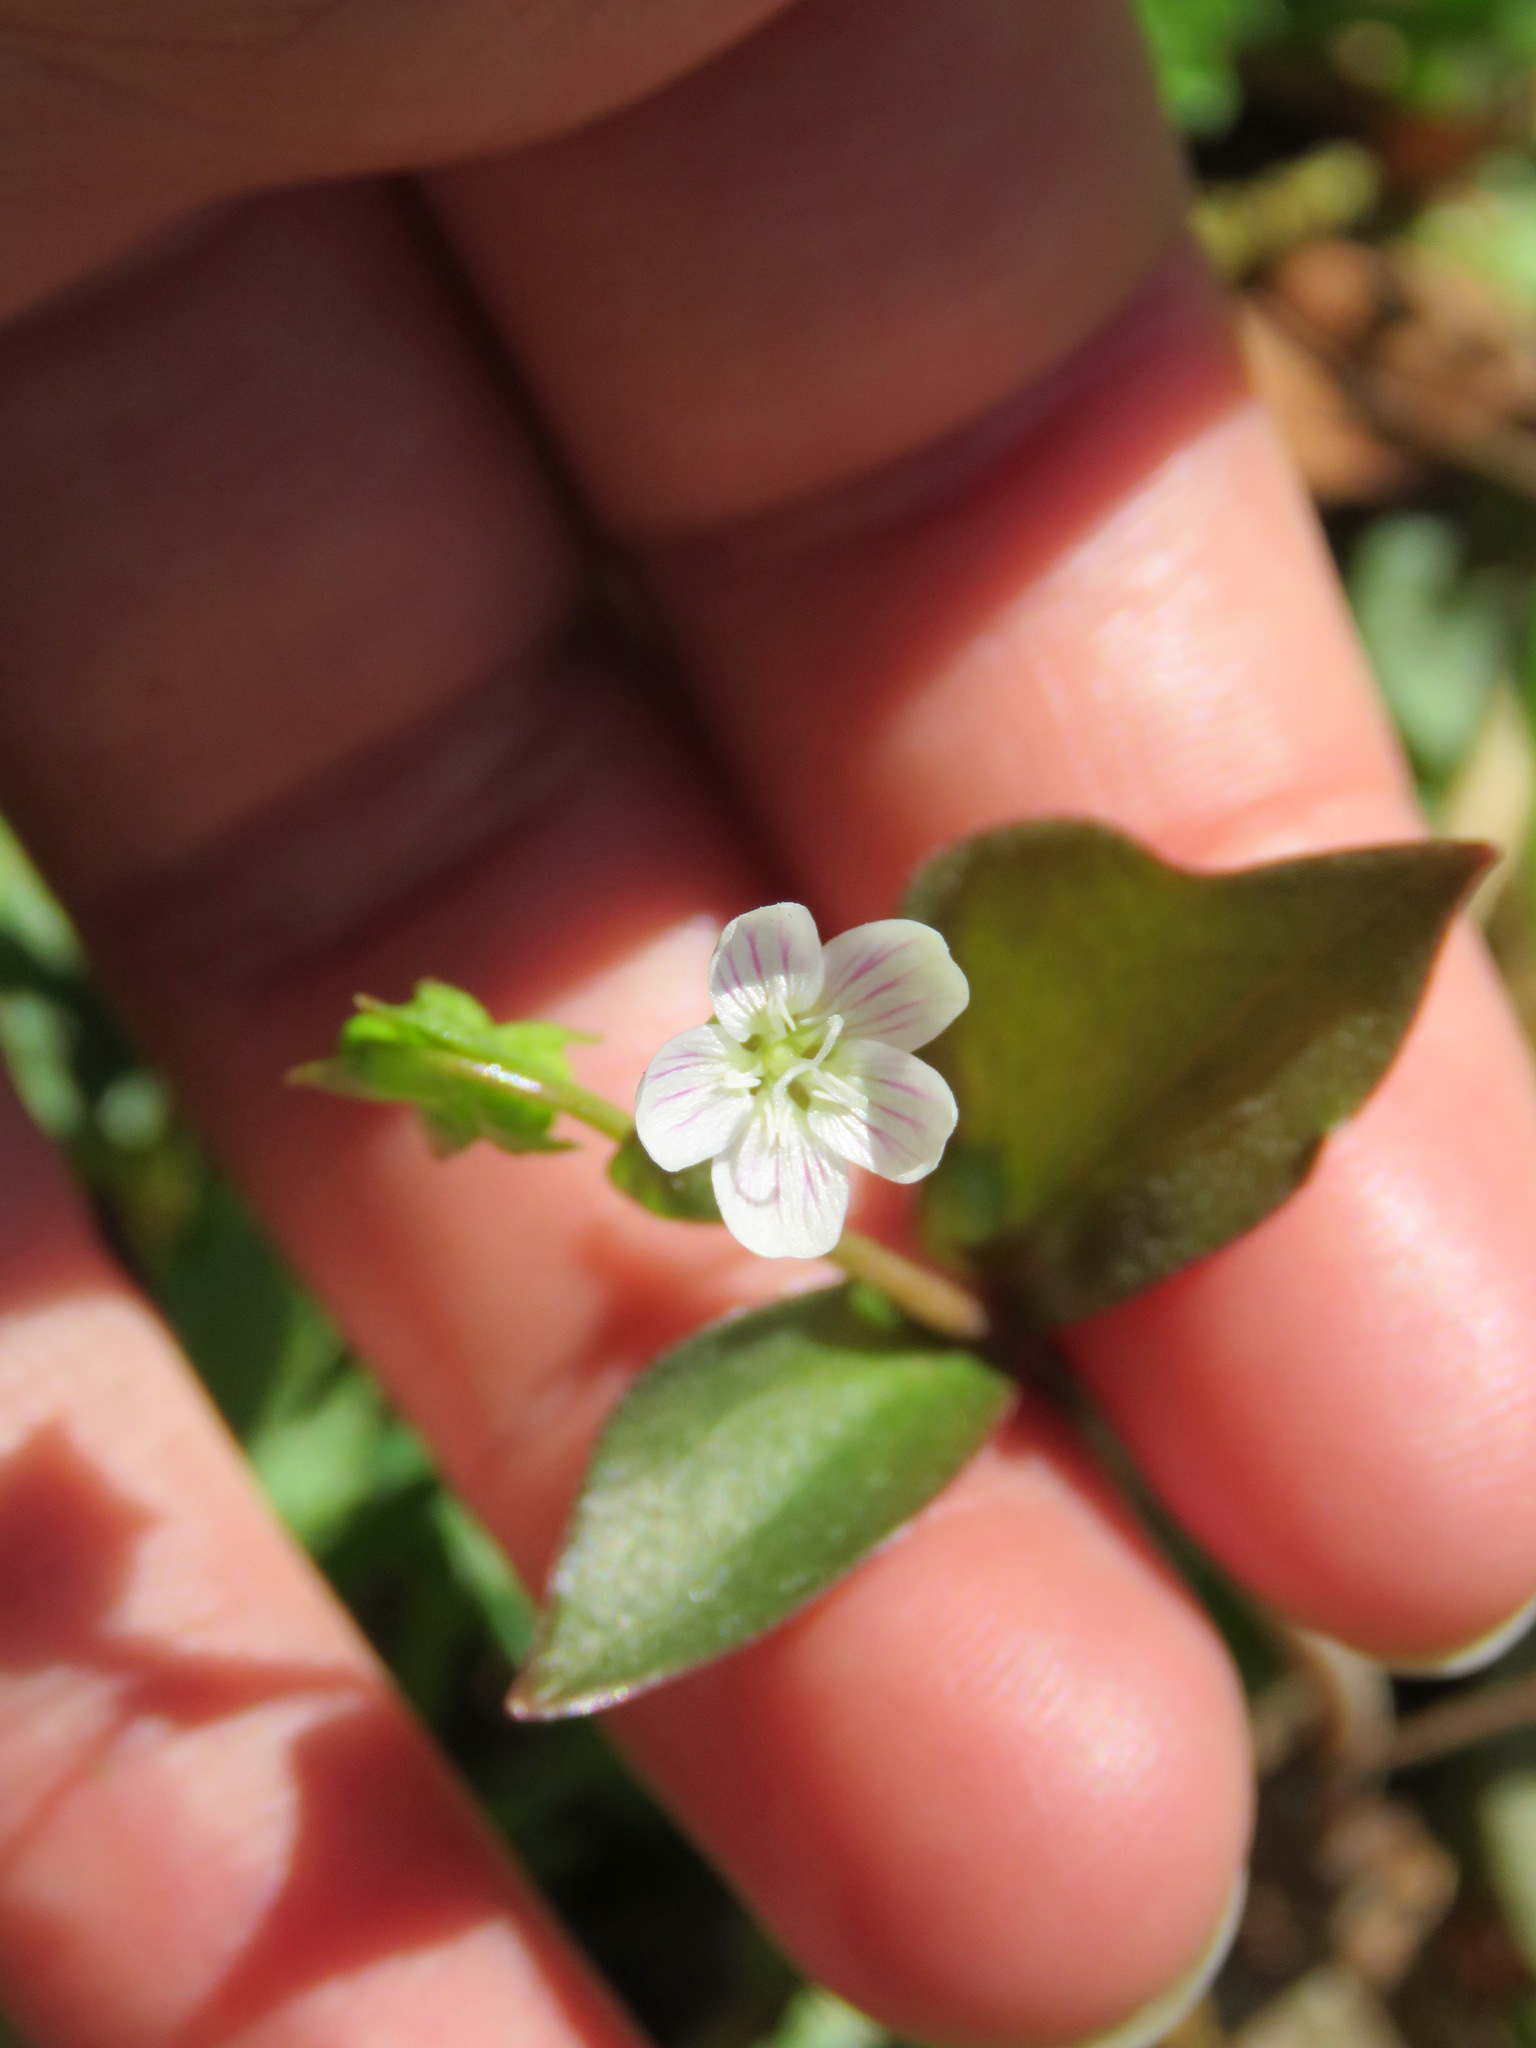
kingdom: Plantae
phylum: Tracheophyta
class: Magnoliopsida
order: Caryophyllales
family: Montiaceae
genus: Claytonia
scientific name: Claytonia sibirica
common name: Pink purslane
